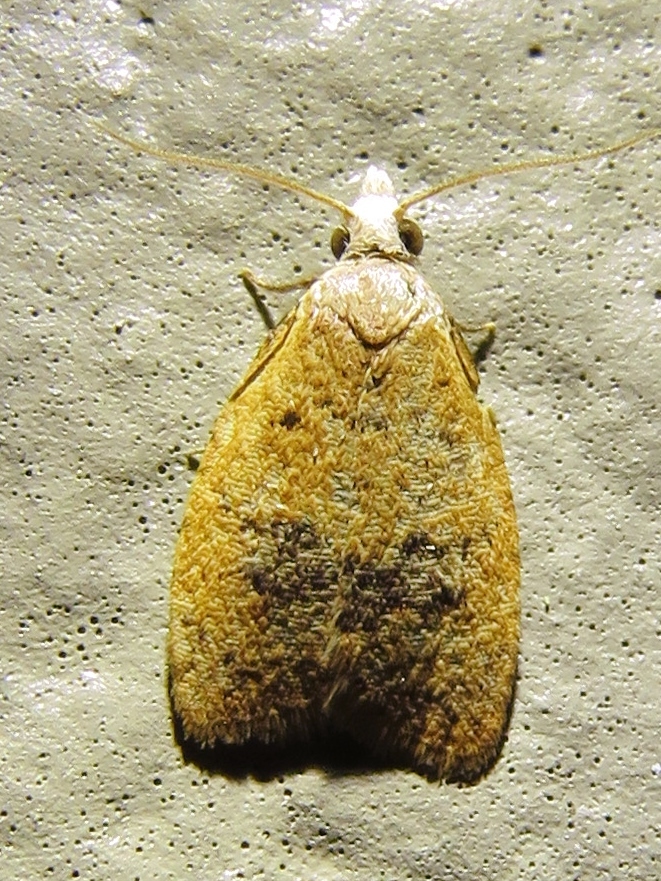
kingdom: Animalia
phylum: Arthropoda
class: Insecta
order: Lepidoptera
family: Tortricidae
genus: Sparganothoides
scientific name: Sparganothoides lentiginosana
